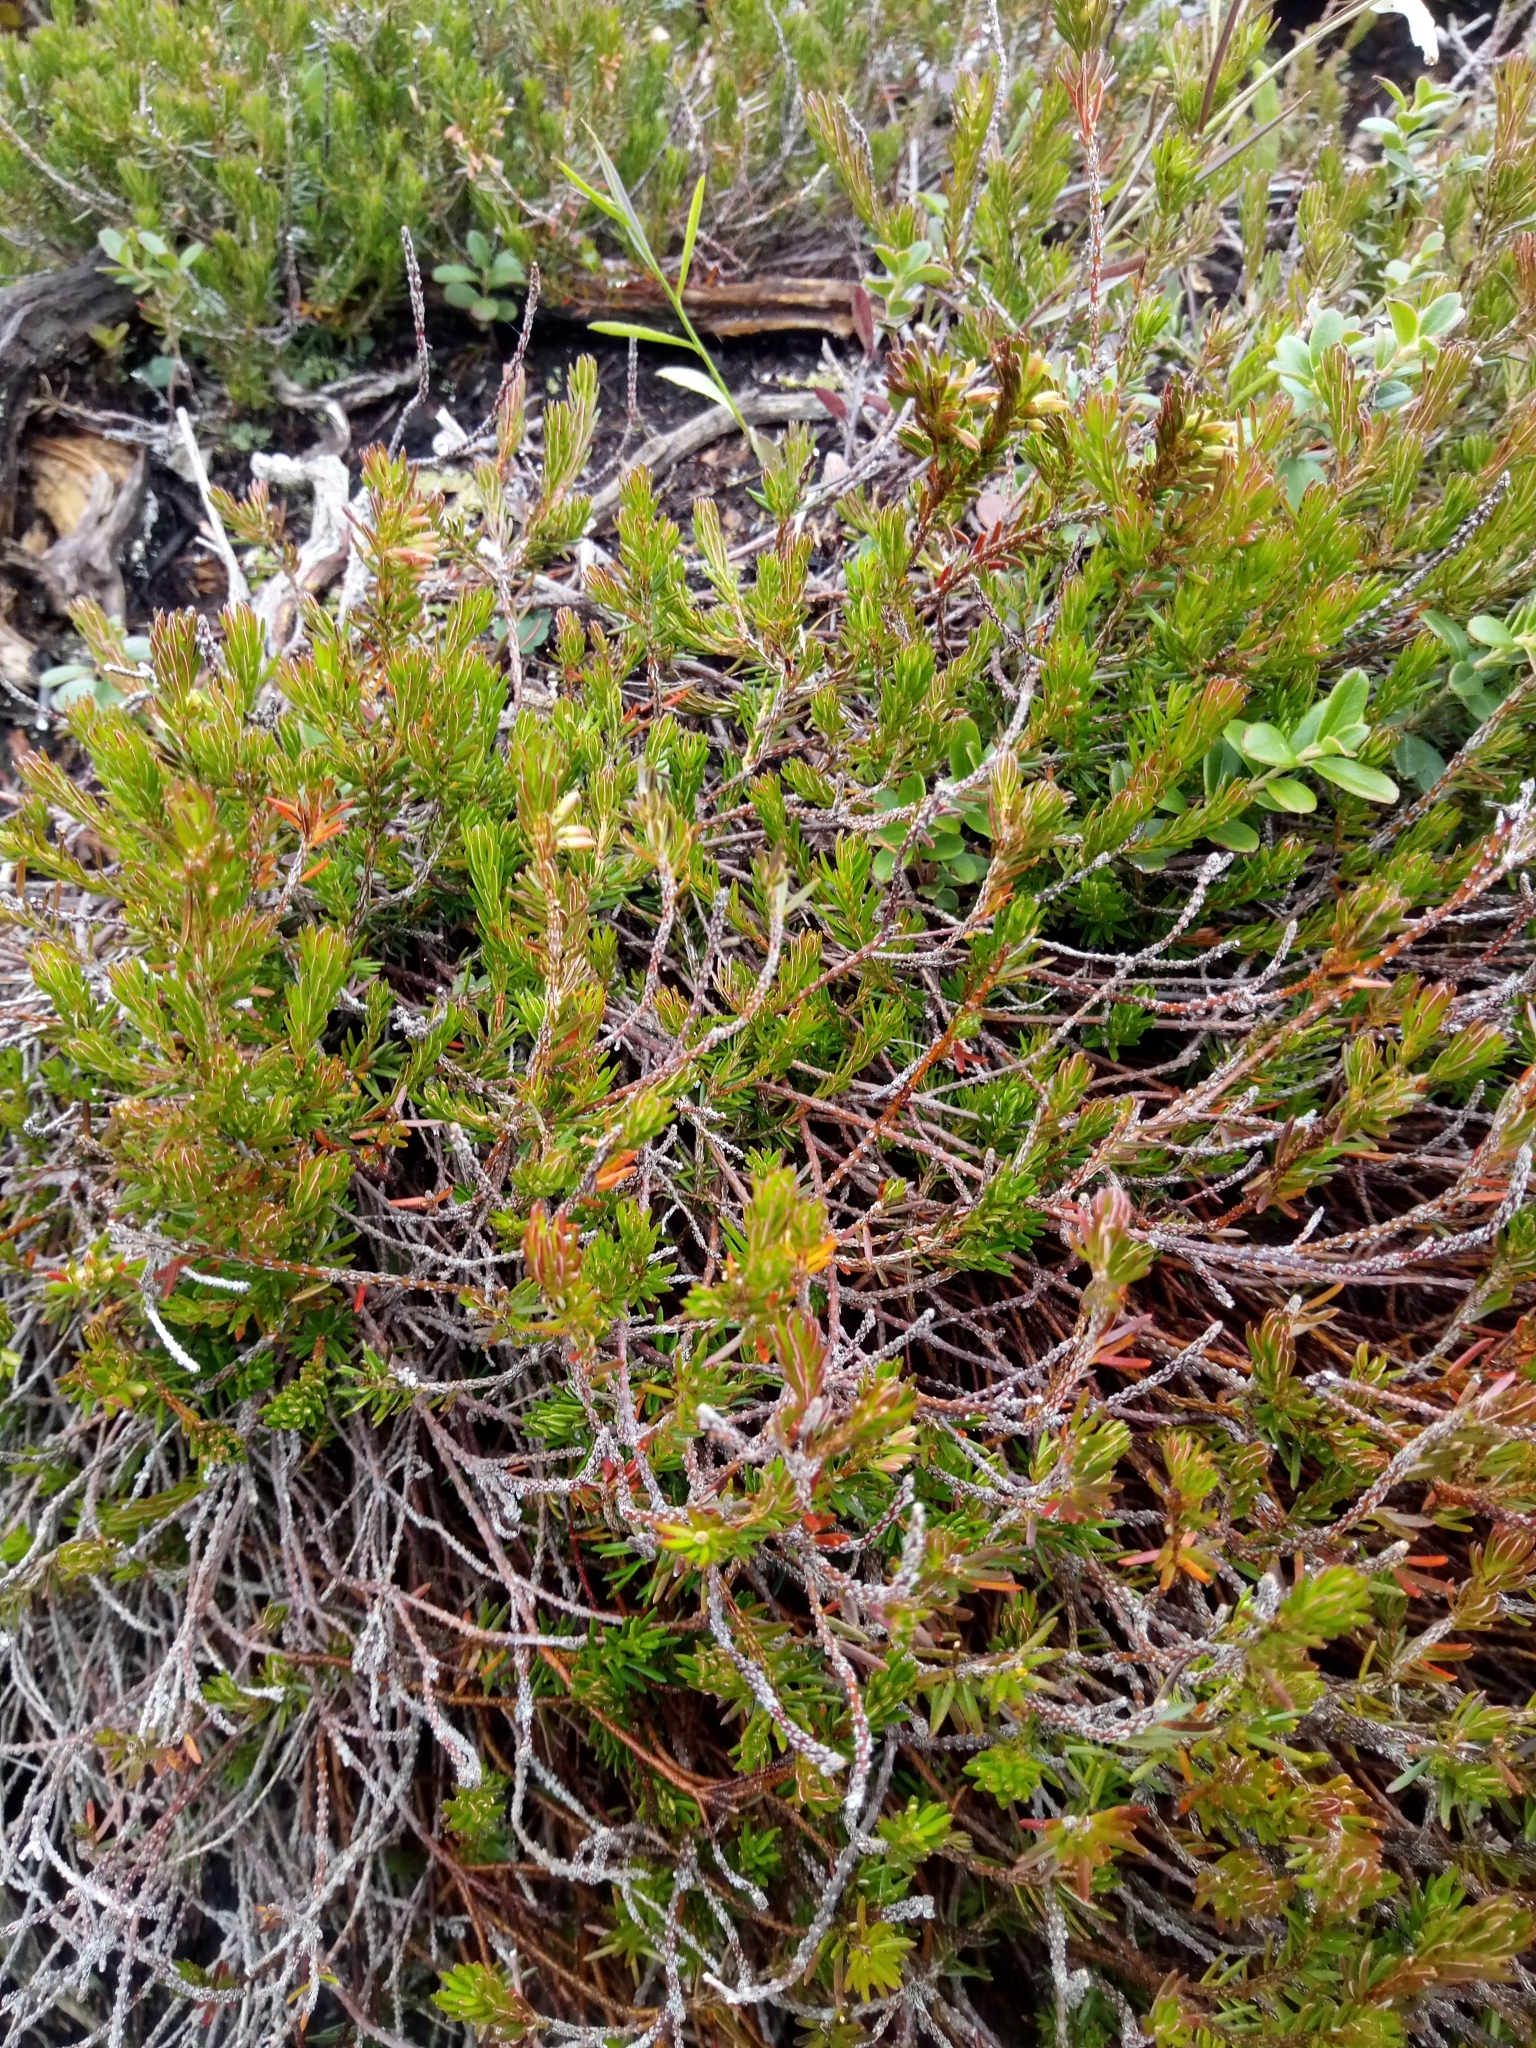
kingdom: Plantae
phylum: Tracheophyta
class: Magnoliopsida
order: Ericales
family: Ericaceae
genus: Erica
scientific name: Erica carnea
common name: Winter heath
